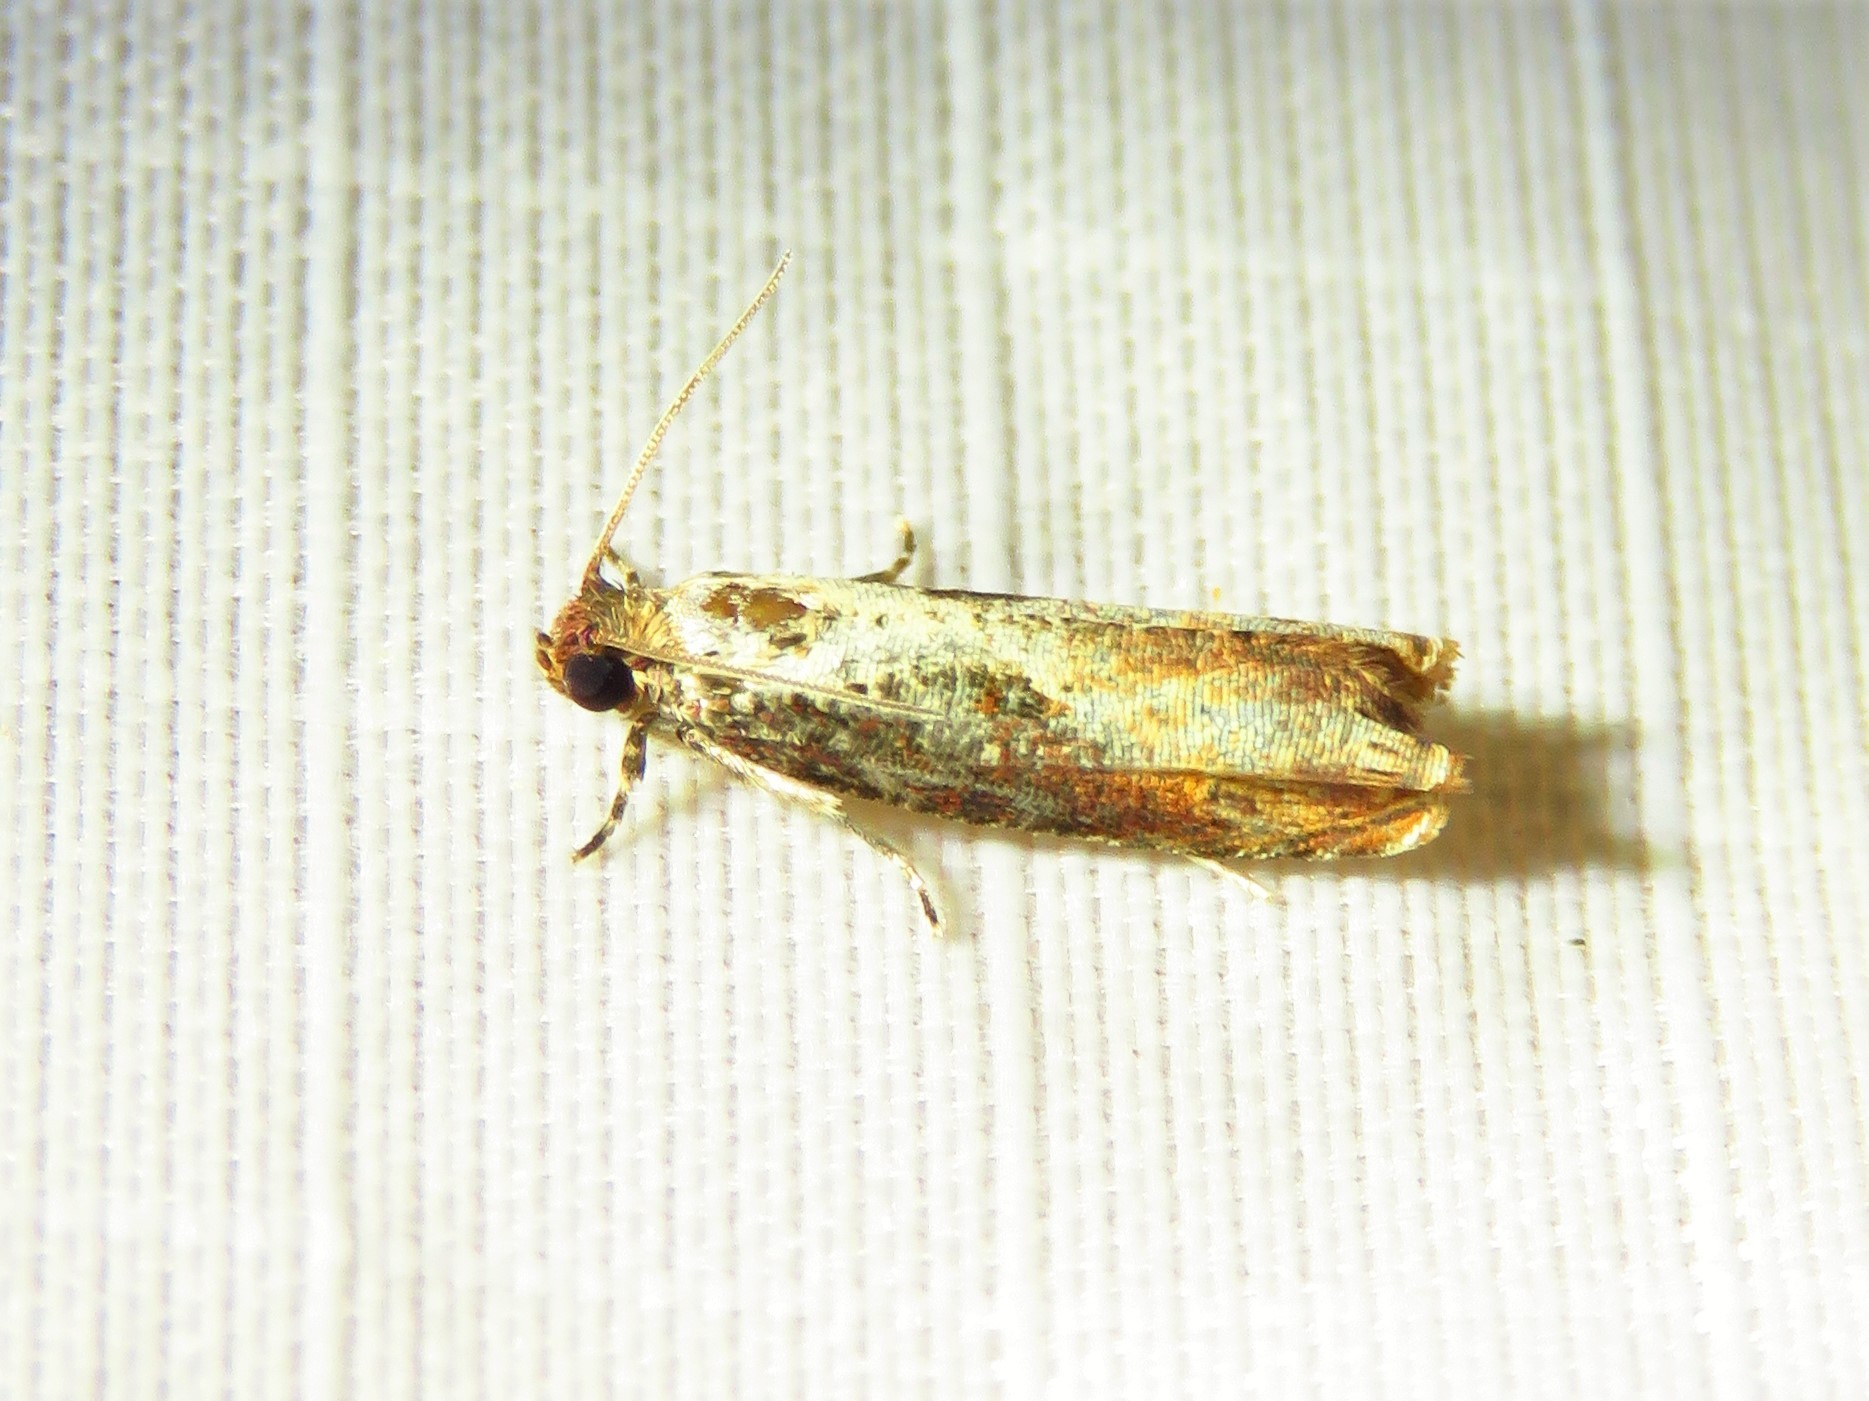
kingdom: Animalia
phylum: Arthropoda
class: Insecta
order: Lepidoptera
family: Tortricidae
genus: Episimus
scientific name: Episimus tyrius
